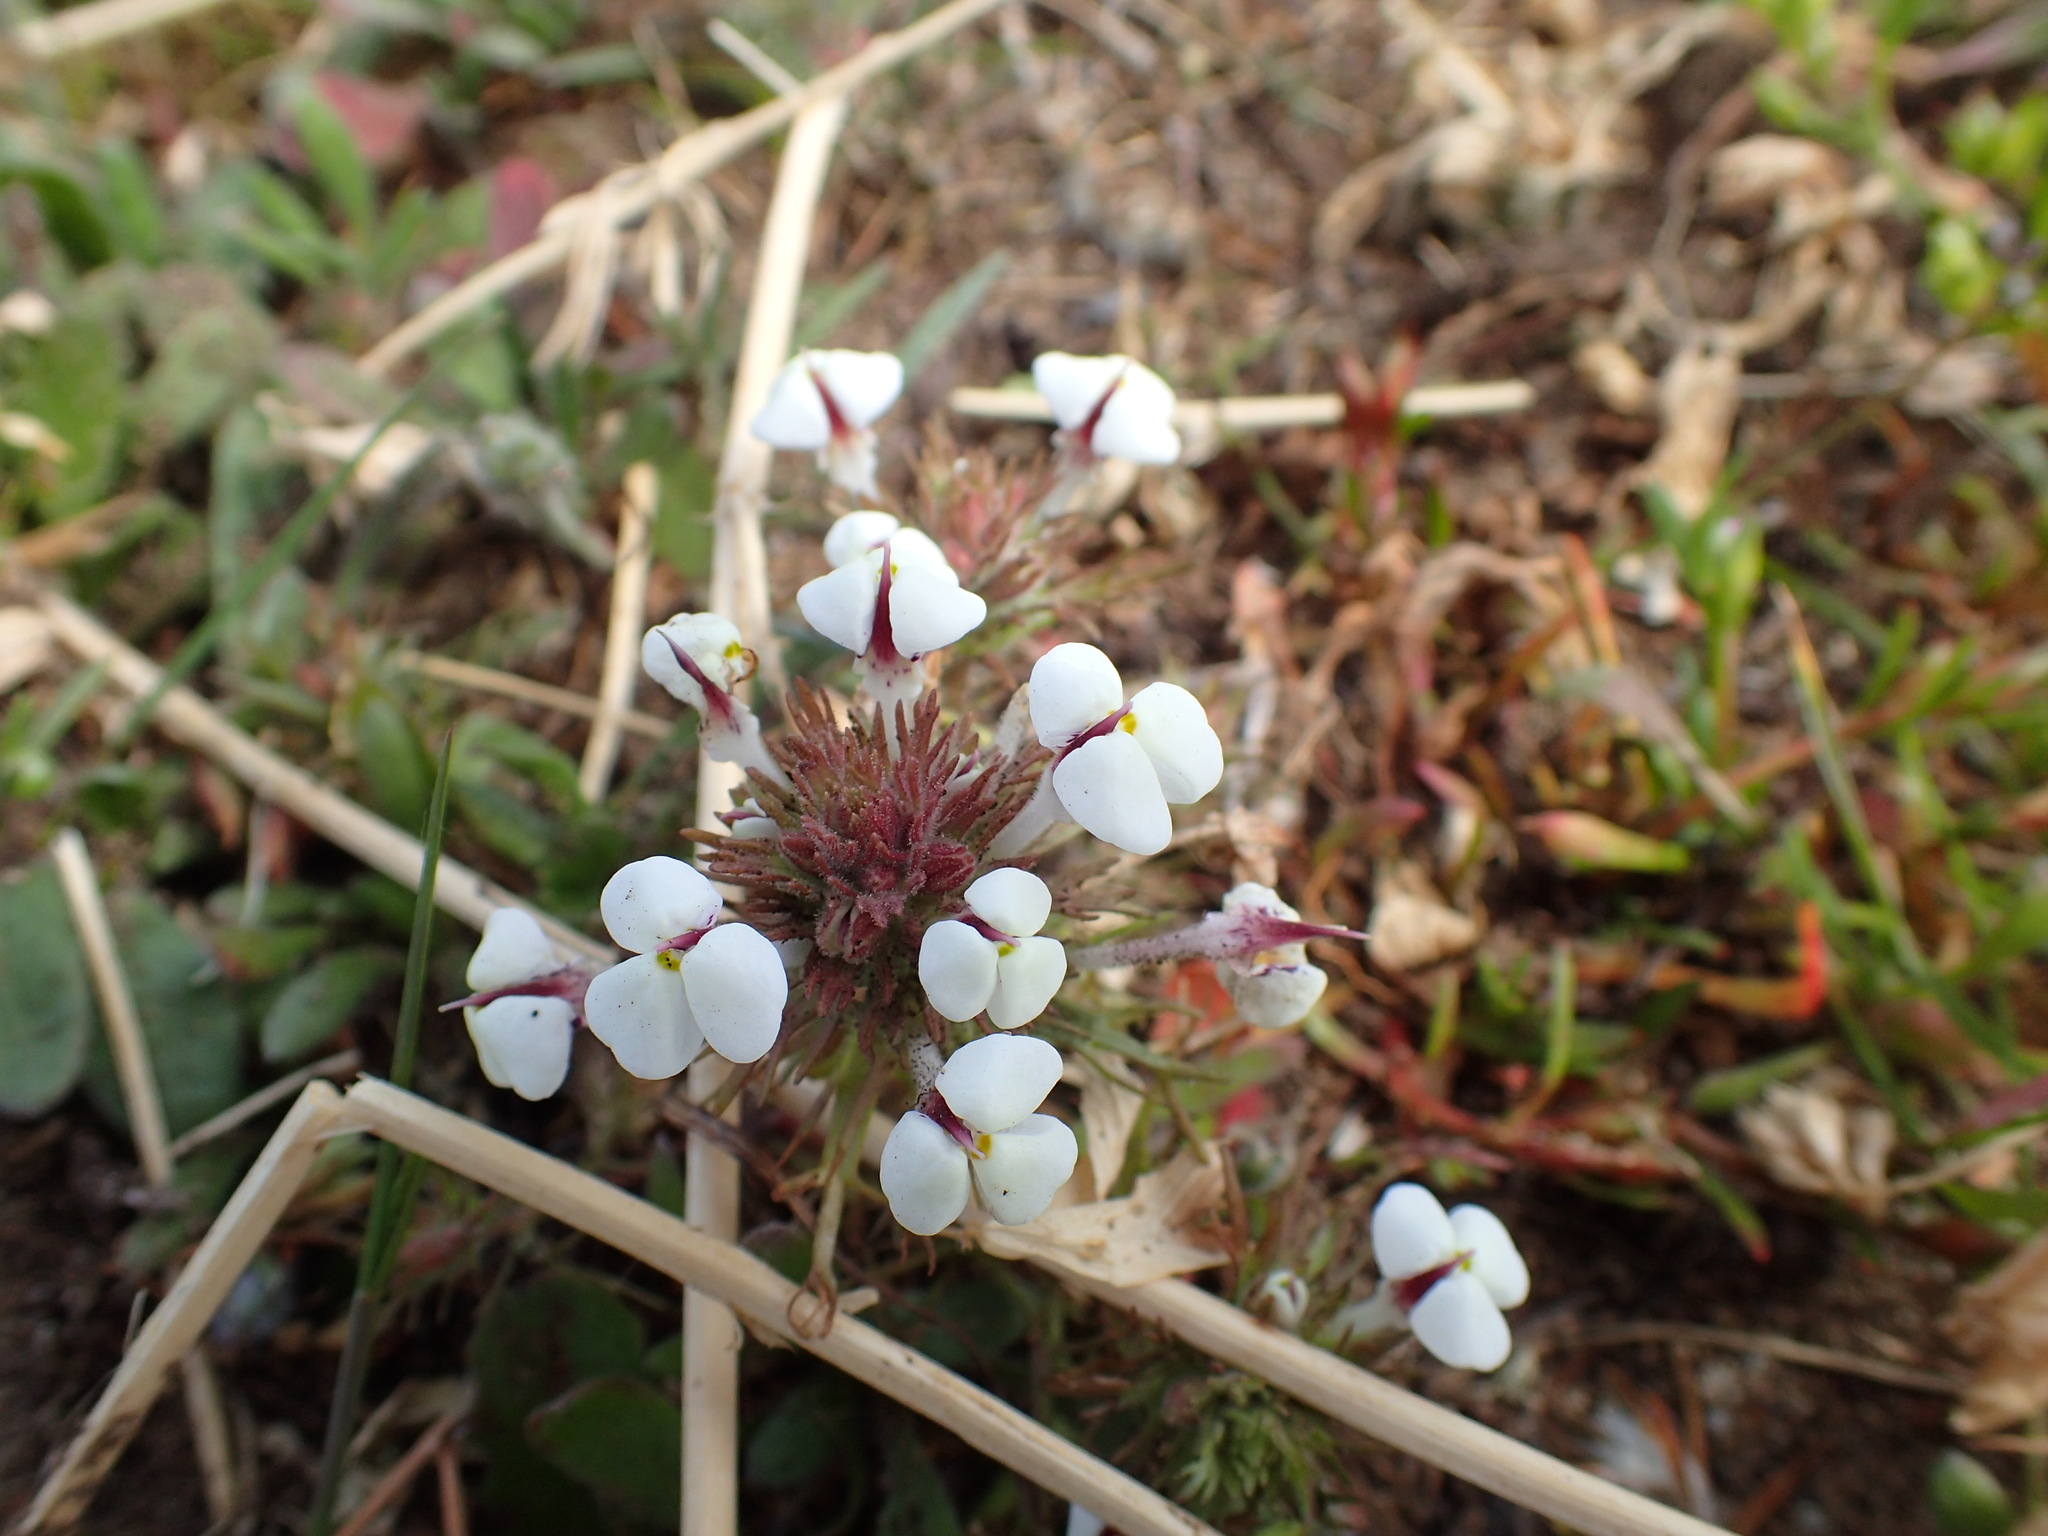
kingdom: Plantae
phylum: Tracheophyta
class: Magnoliopsida
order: Lamiales
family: Orobanchaceae
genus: Triphysaria
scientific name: Triphysaria eriantha
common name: Johnny-tuck
